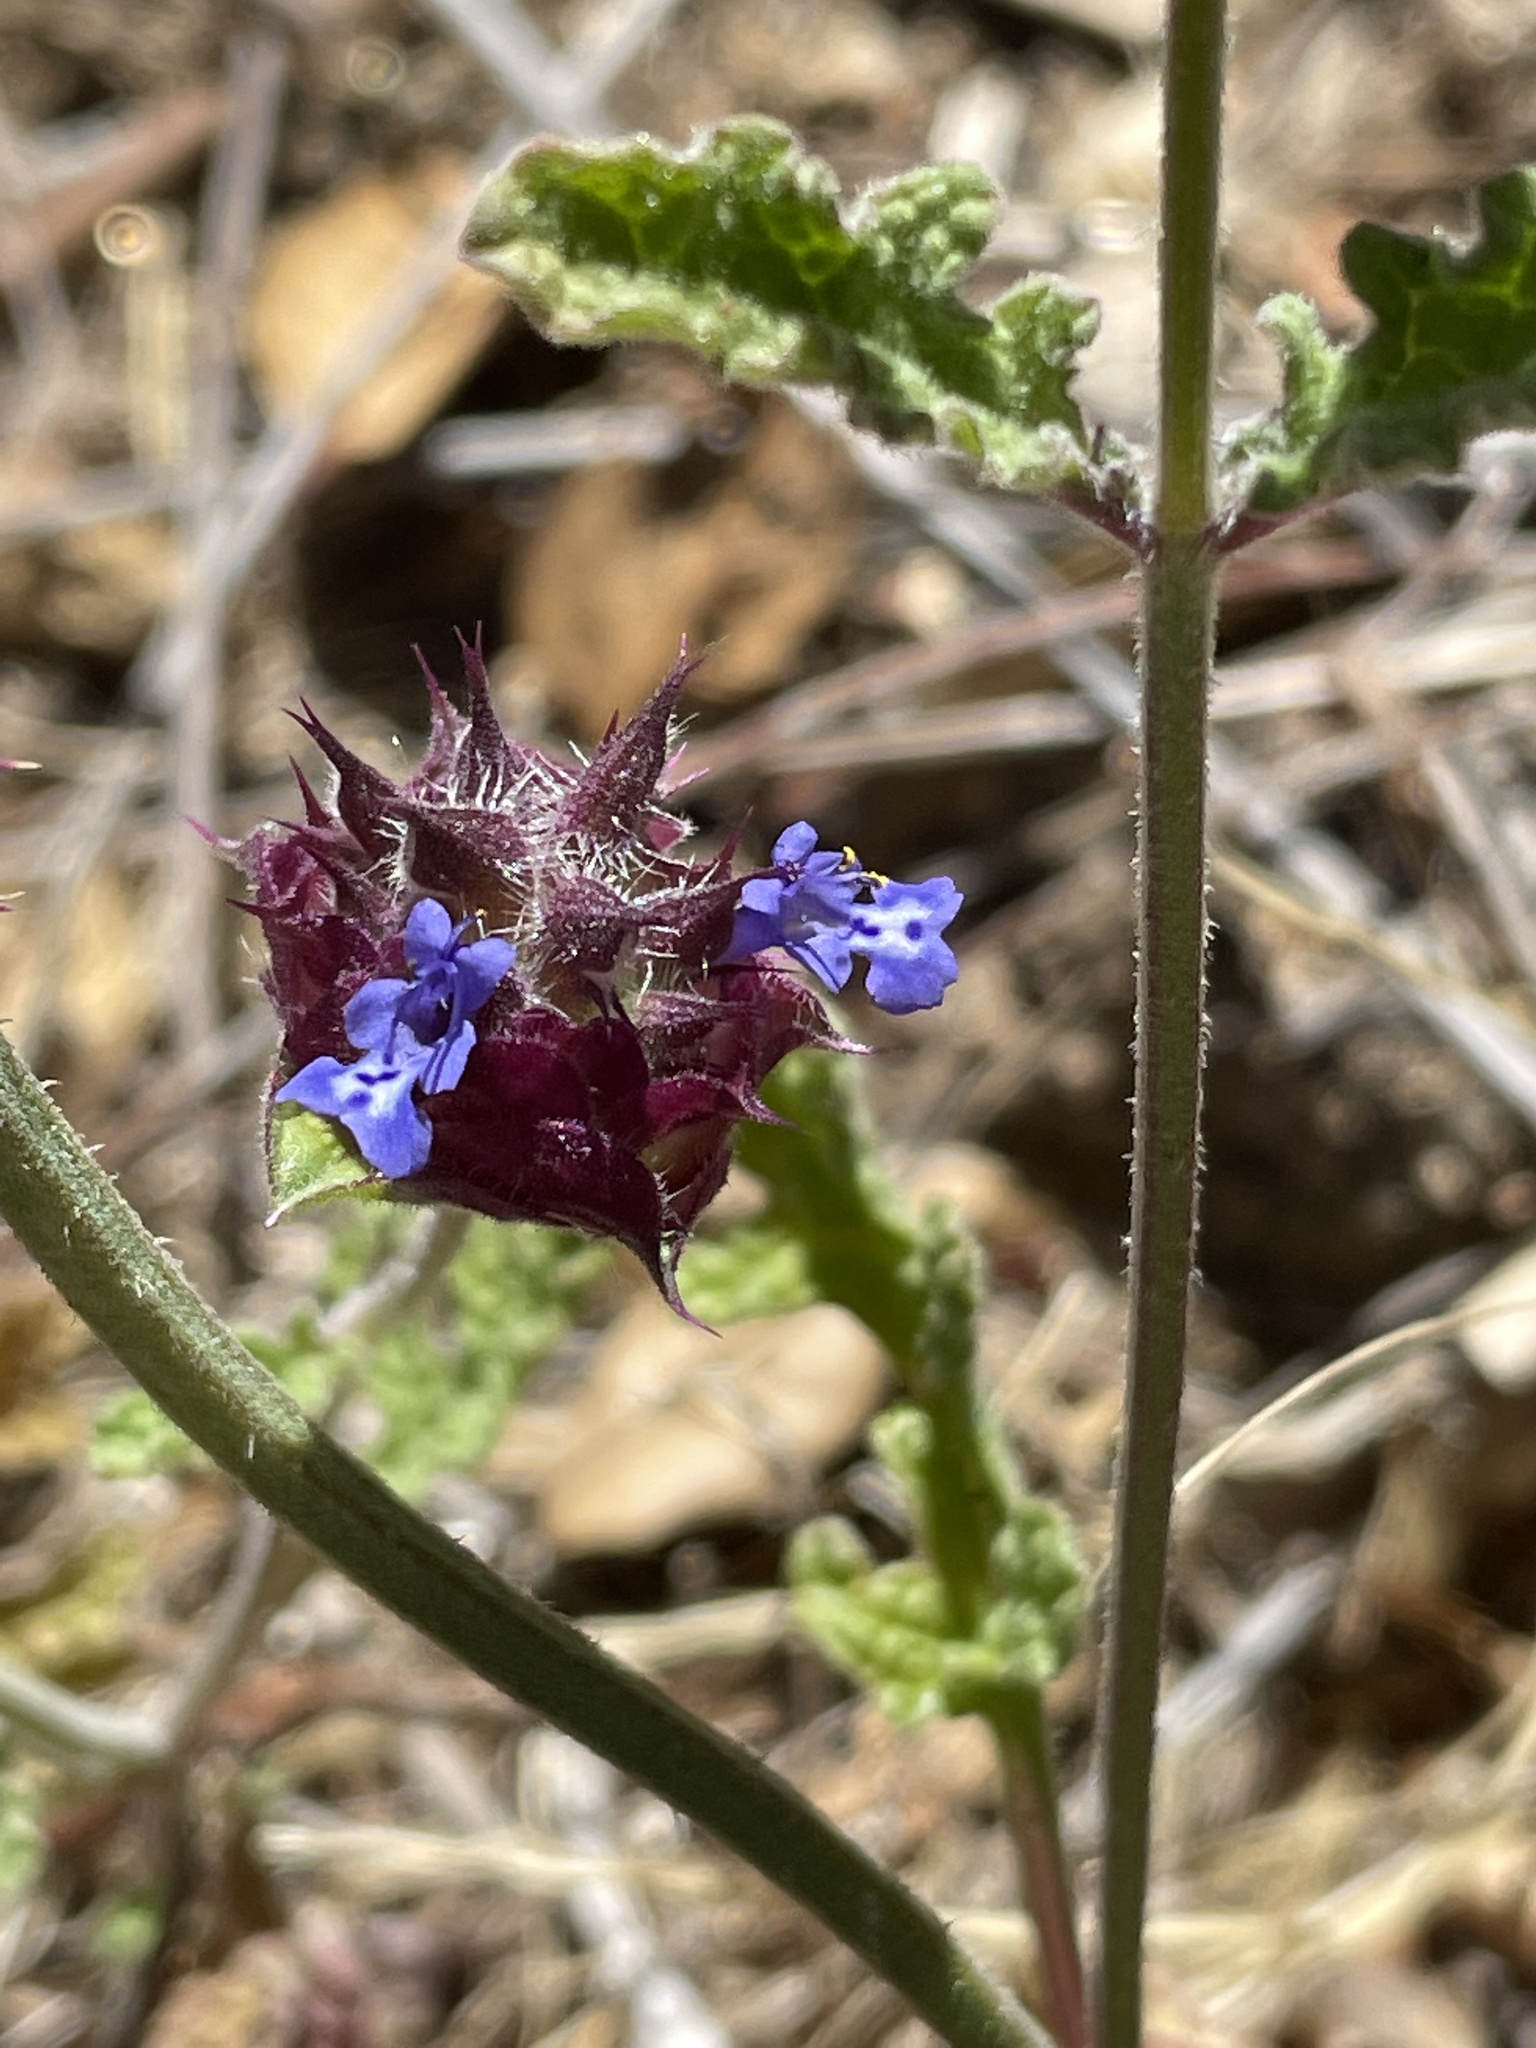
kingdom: Plantae
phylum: Tracheophyta
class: Magnoliopsida
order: Lamiales
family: Lamiaceae
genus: Salvia
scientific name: Salvia columbariae
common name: Chia
